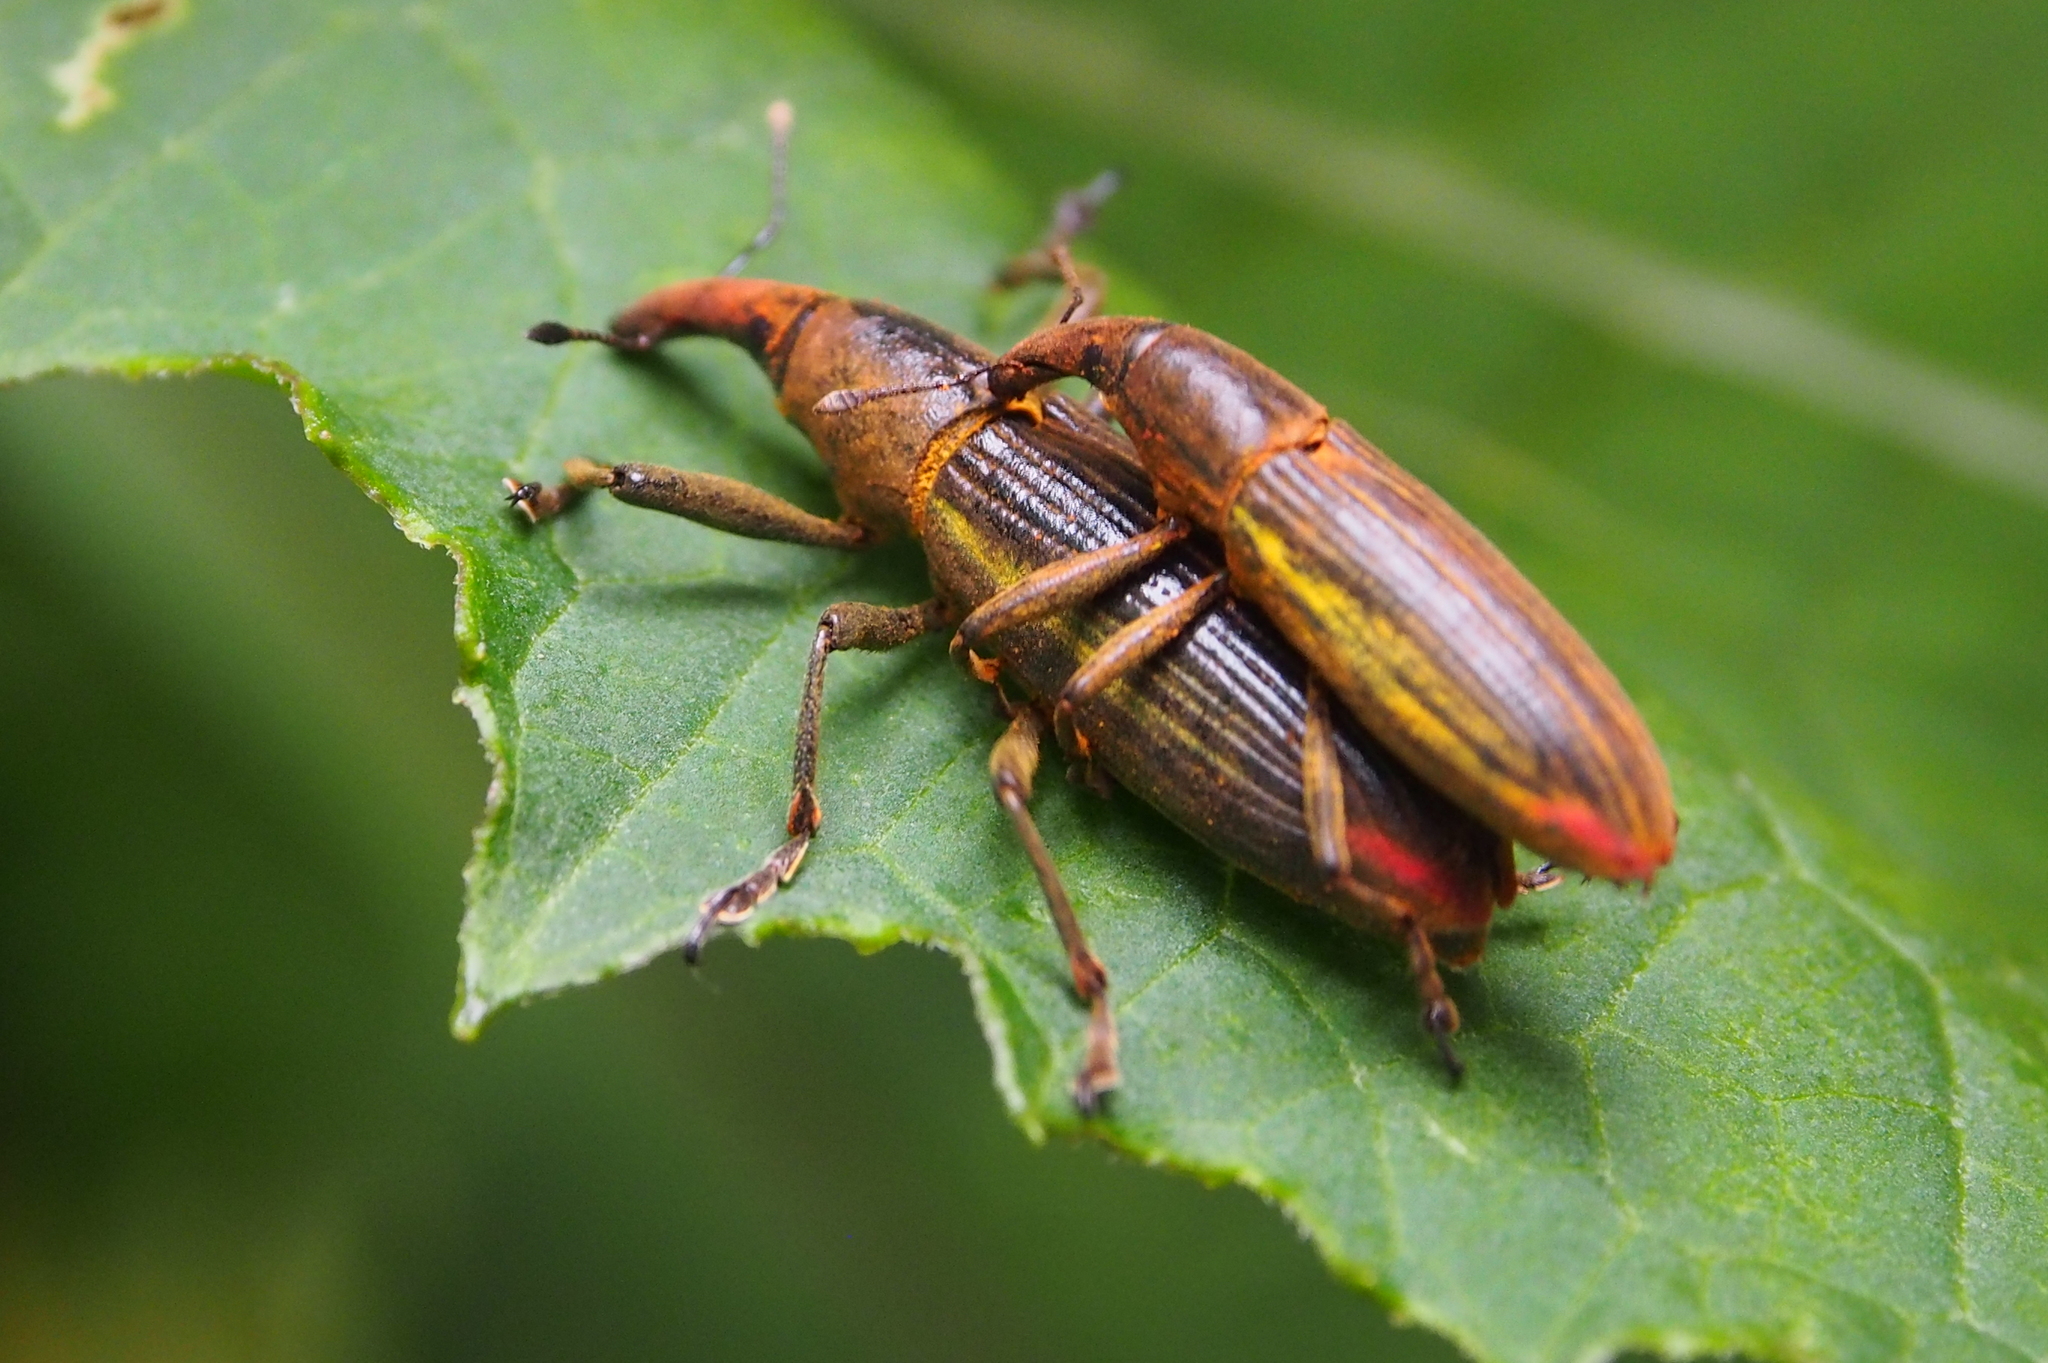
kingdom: Animalia
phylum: Arthropoda
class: Insecta
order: Coleoptera
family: Curculionidae
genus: Lixus
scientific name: Lixus apterus
